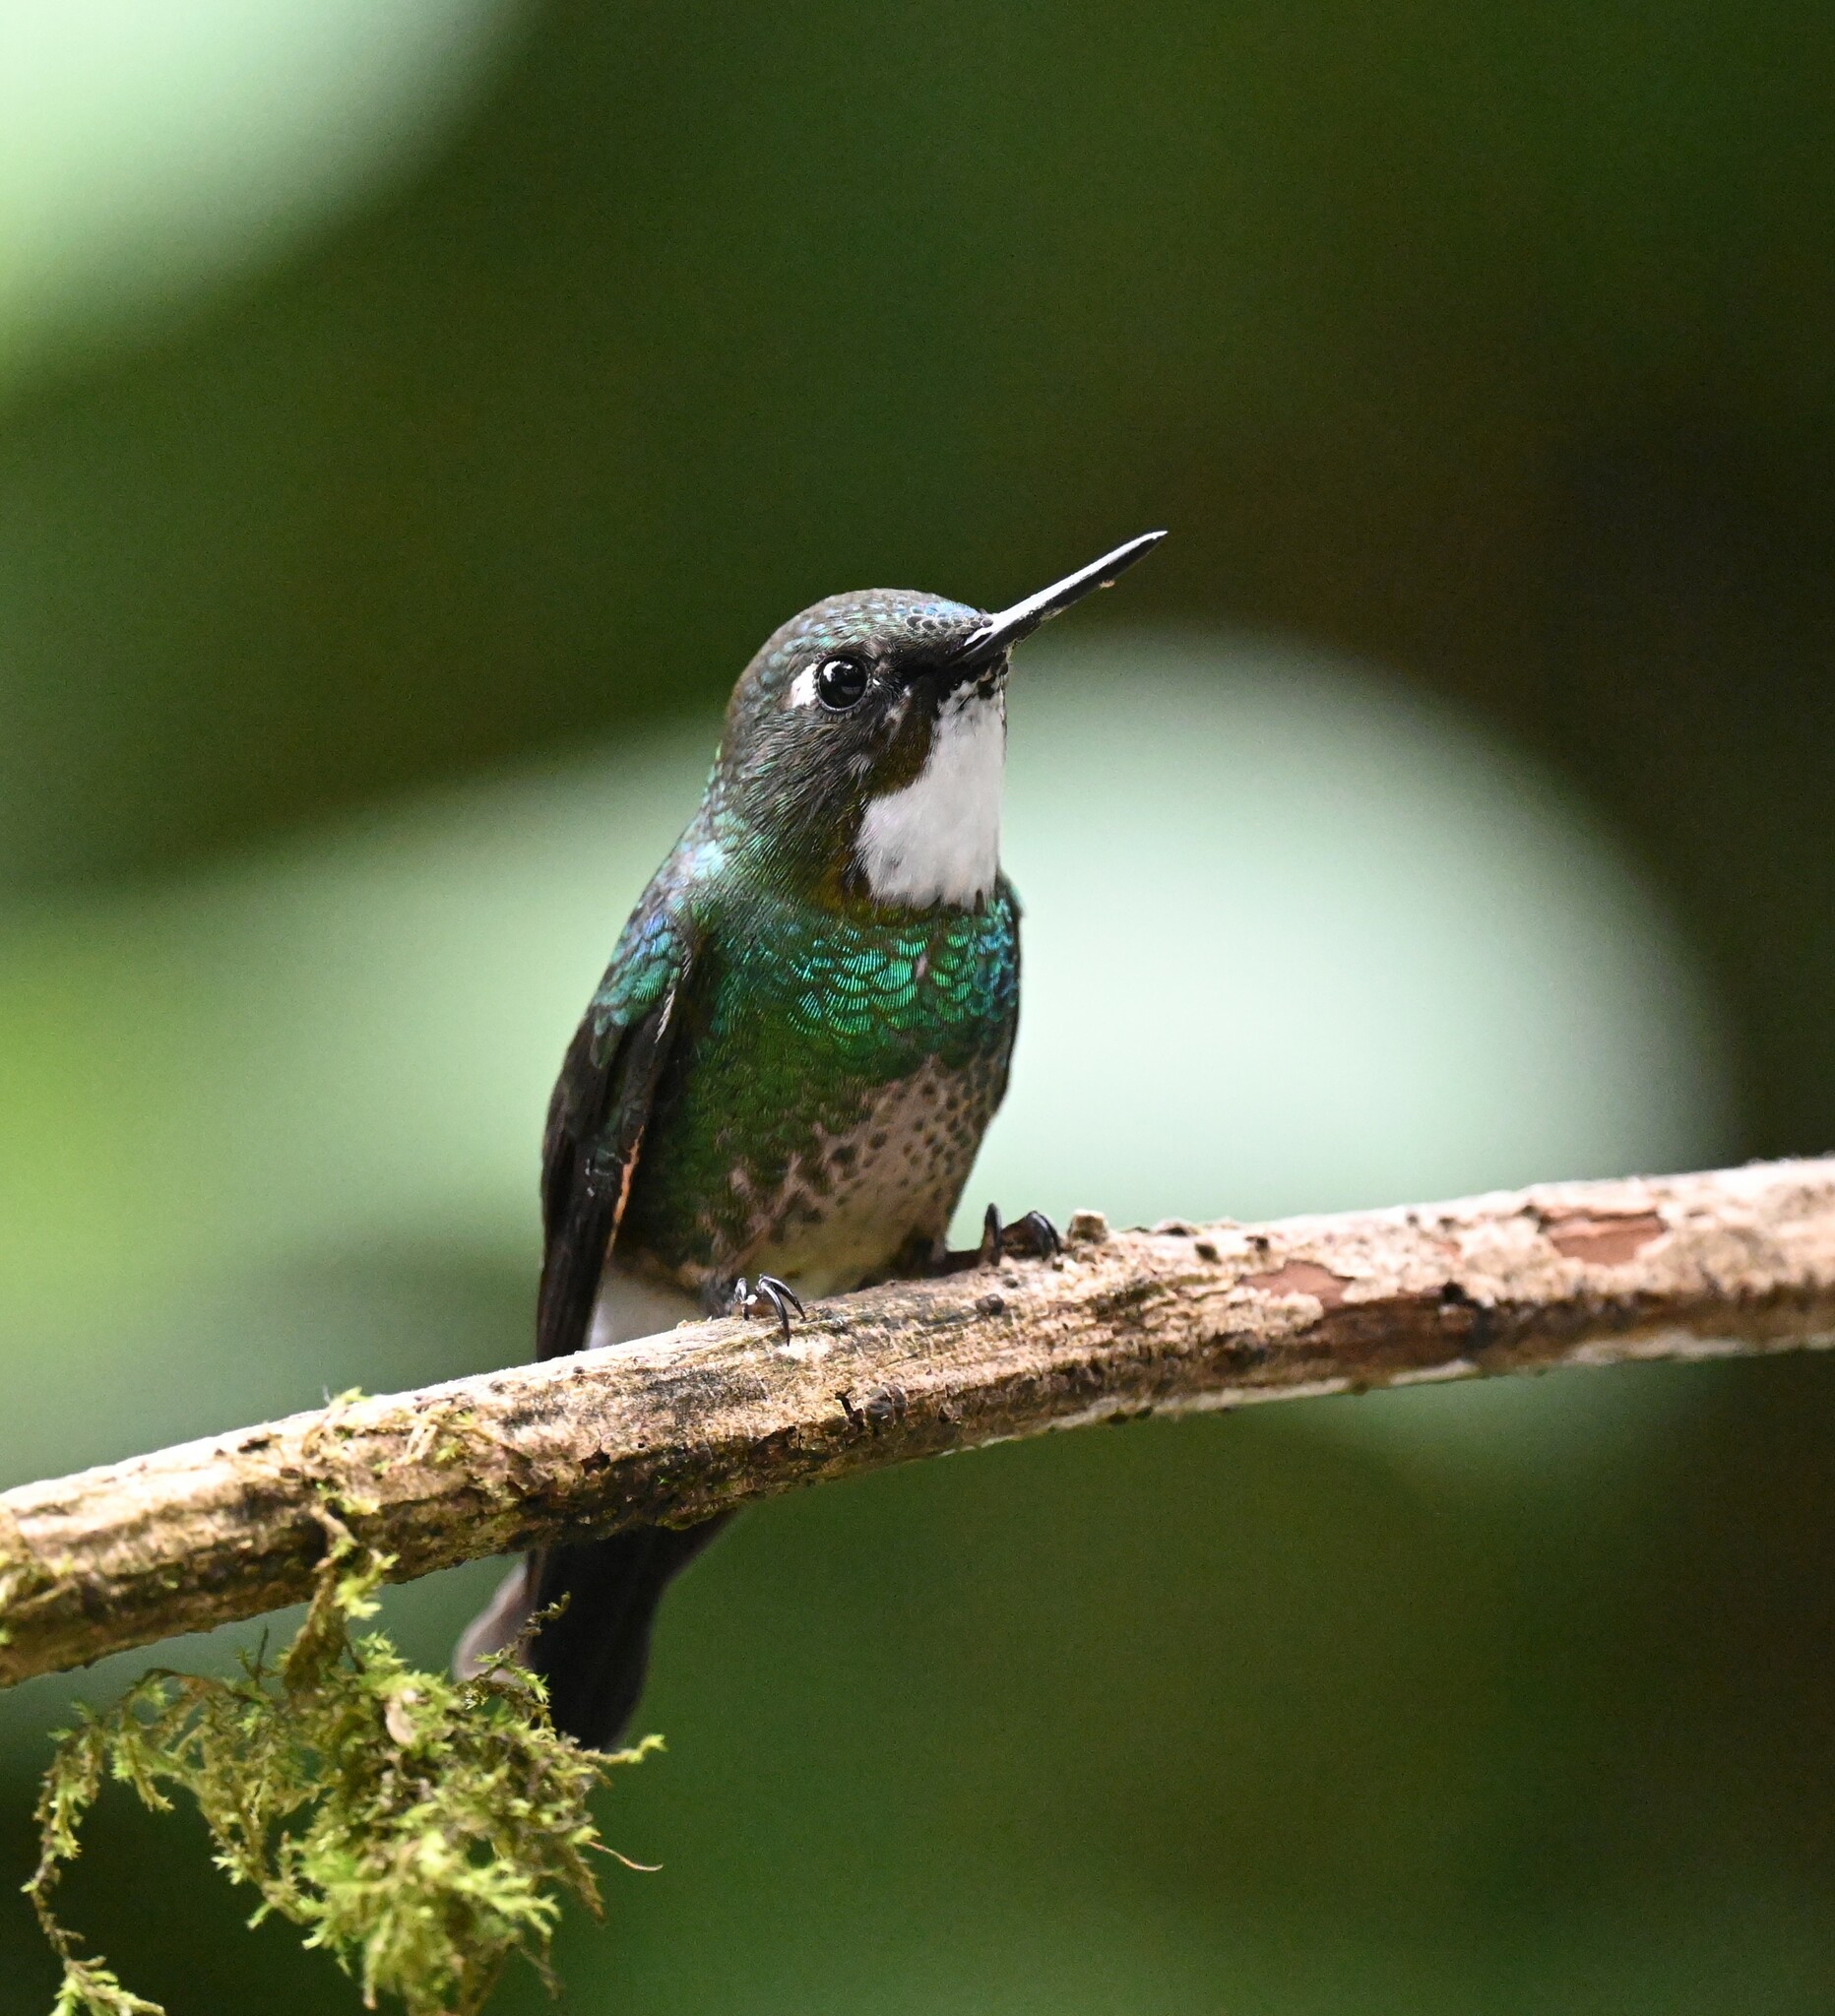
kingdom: Animalia
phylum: Chordata
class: Aves
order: Apodiformes
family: Trochilidae
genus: Heliangelus
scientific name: Heliangelus exortis
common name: Tourmaline sunangel
